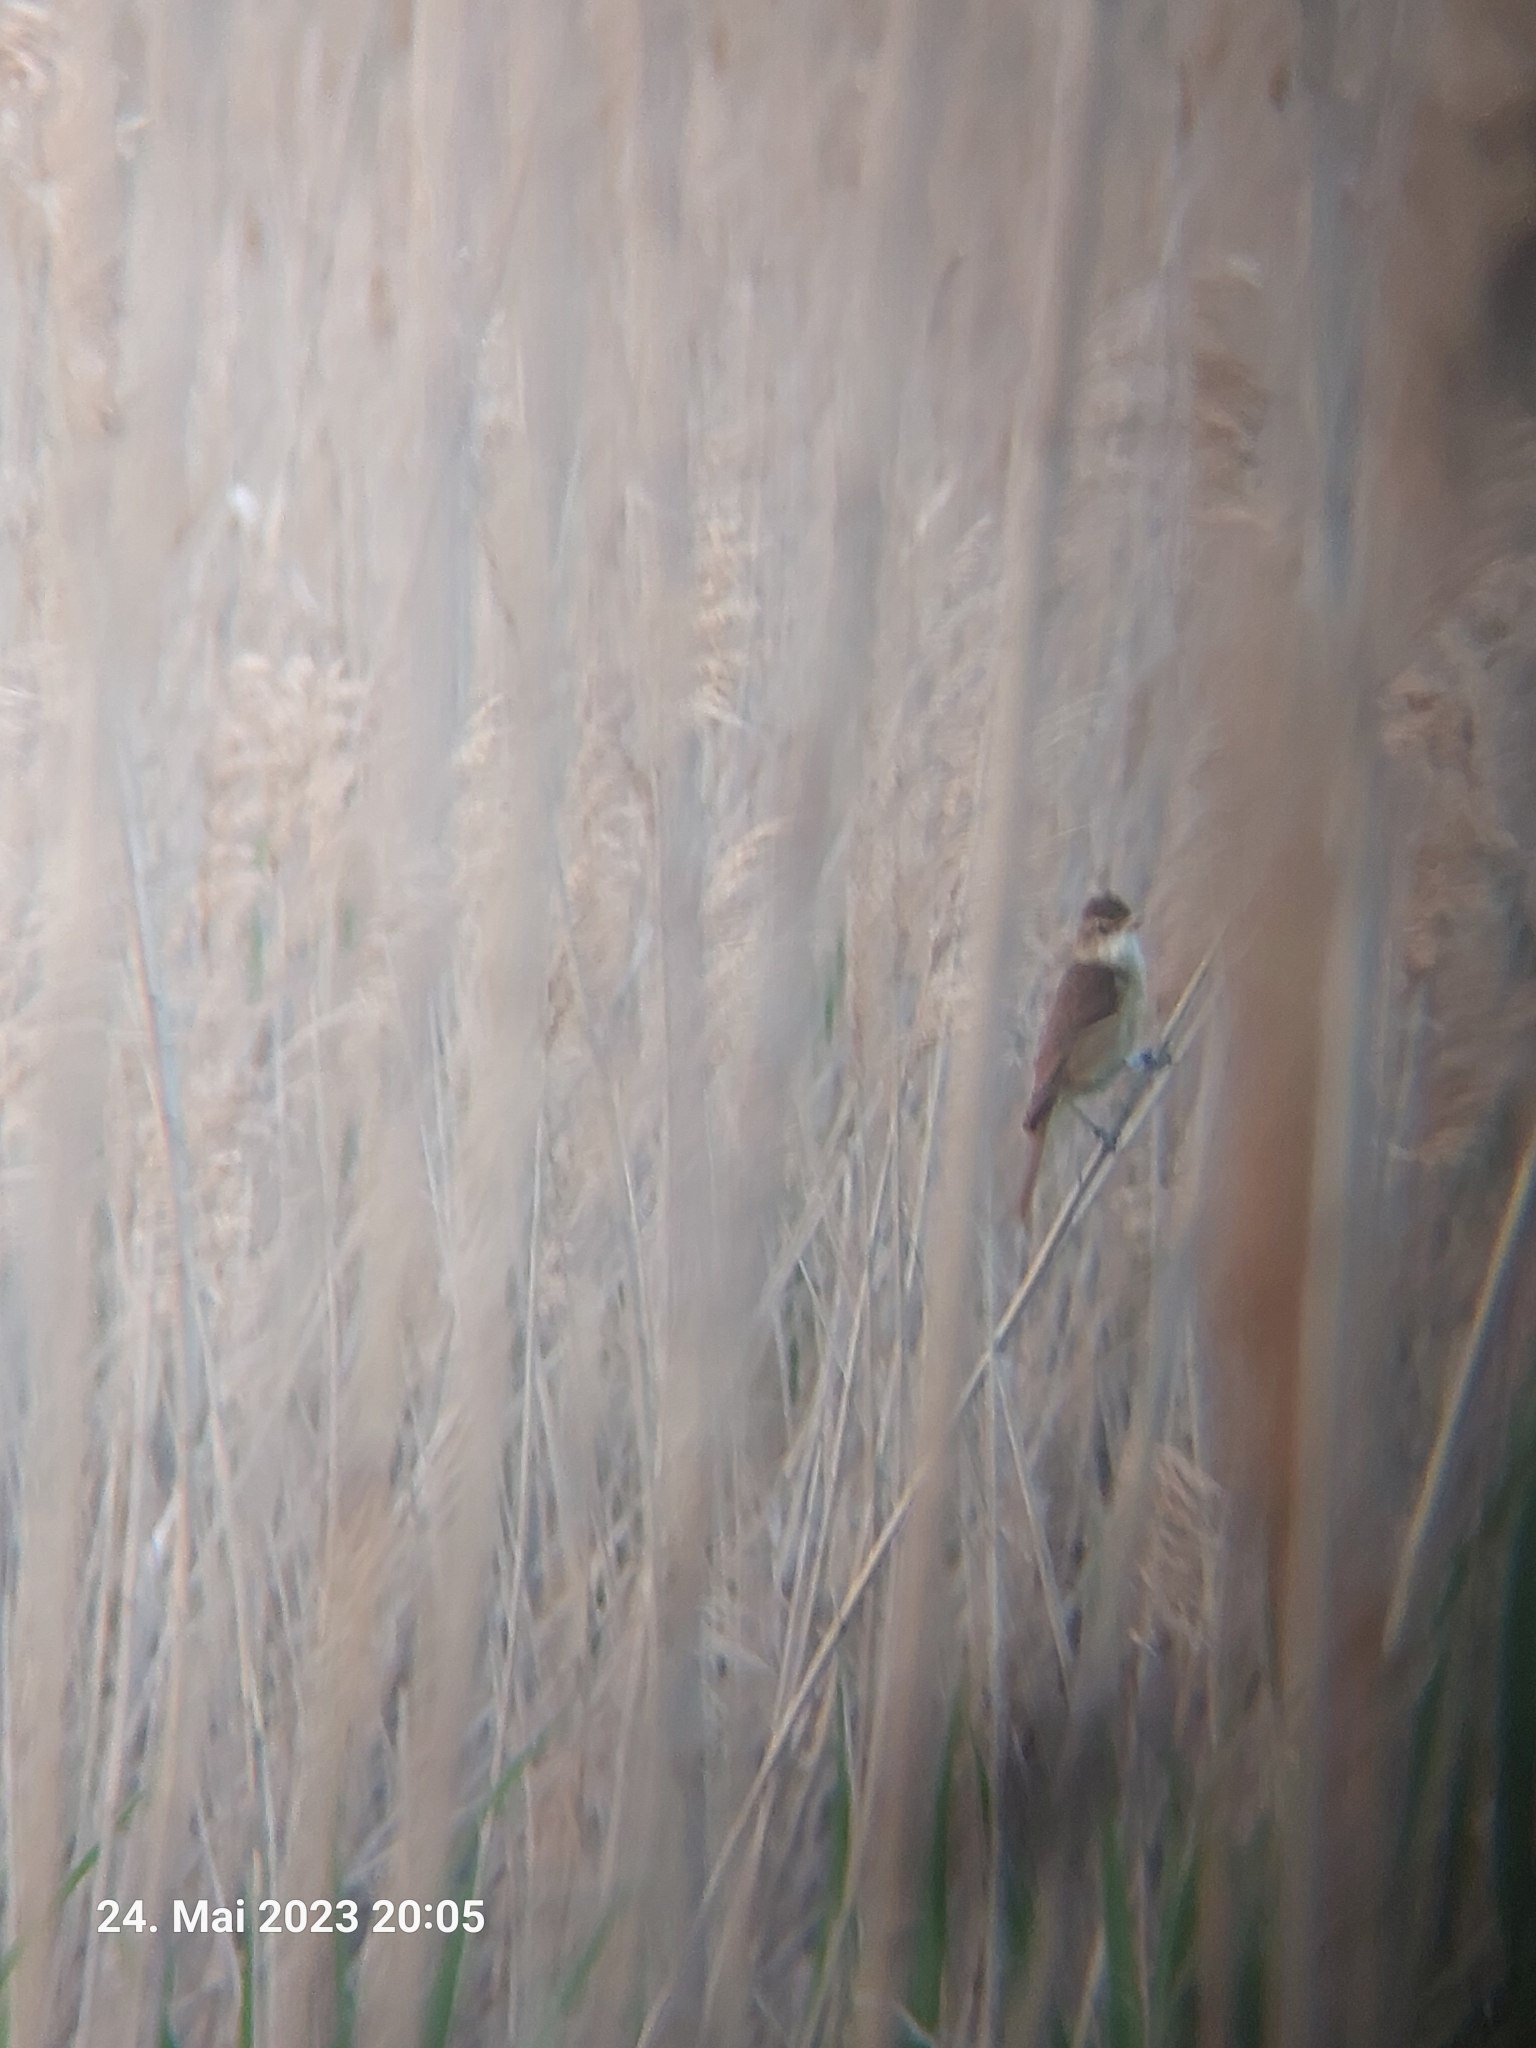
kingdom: Animalia
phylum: Chordata
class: Aves
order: Passeriformes
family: Acrocephalidae
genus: Acrocephalus
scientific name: Acrocephalus arundinaceus
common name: Great reed warbler
